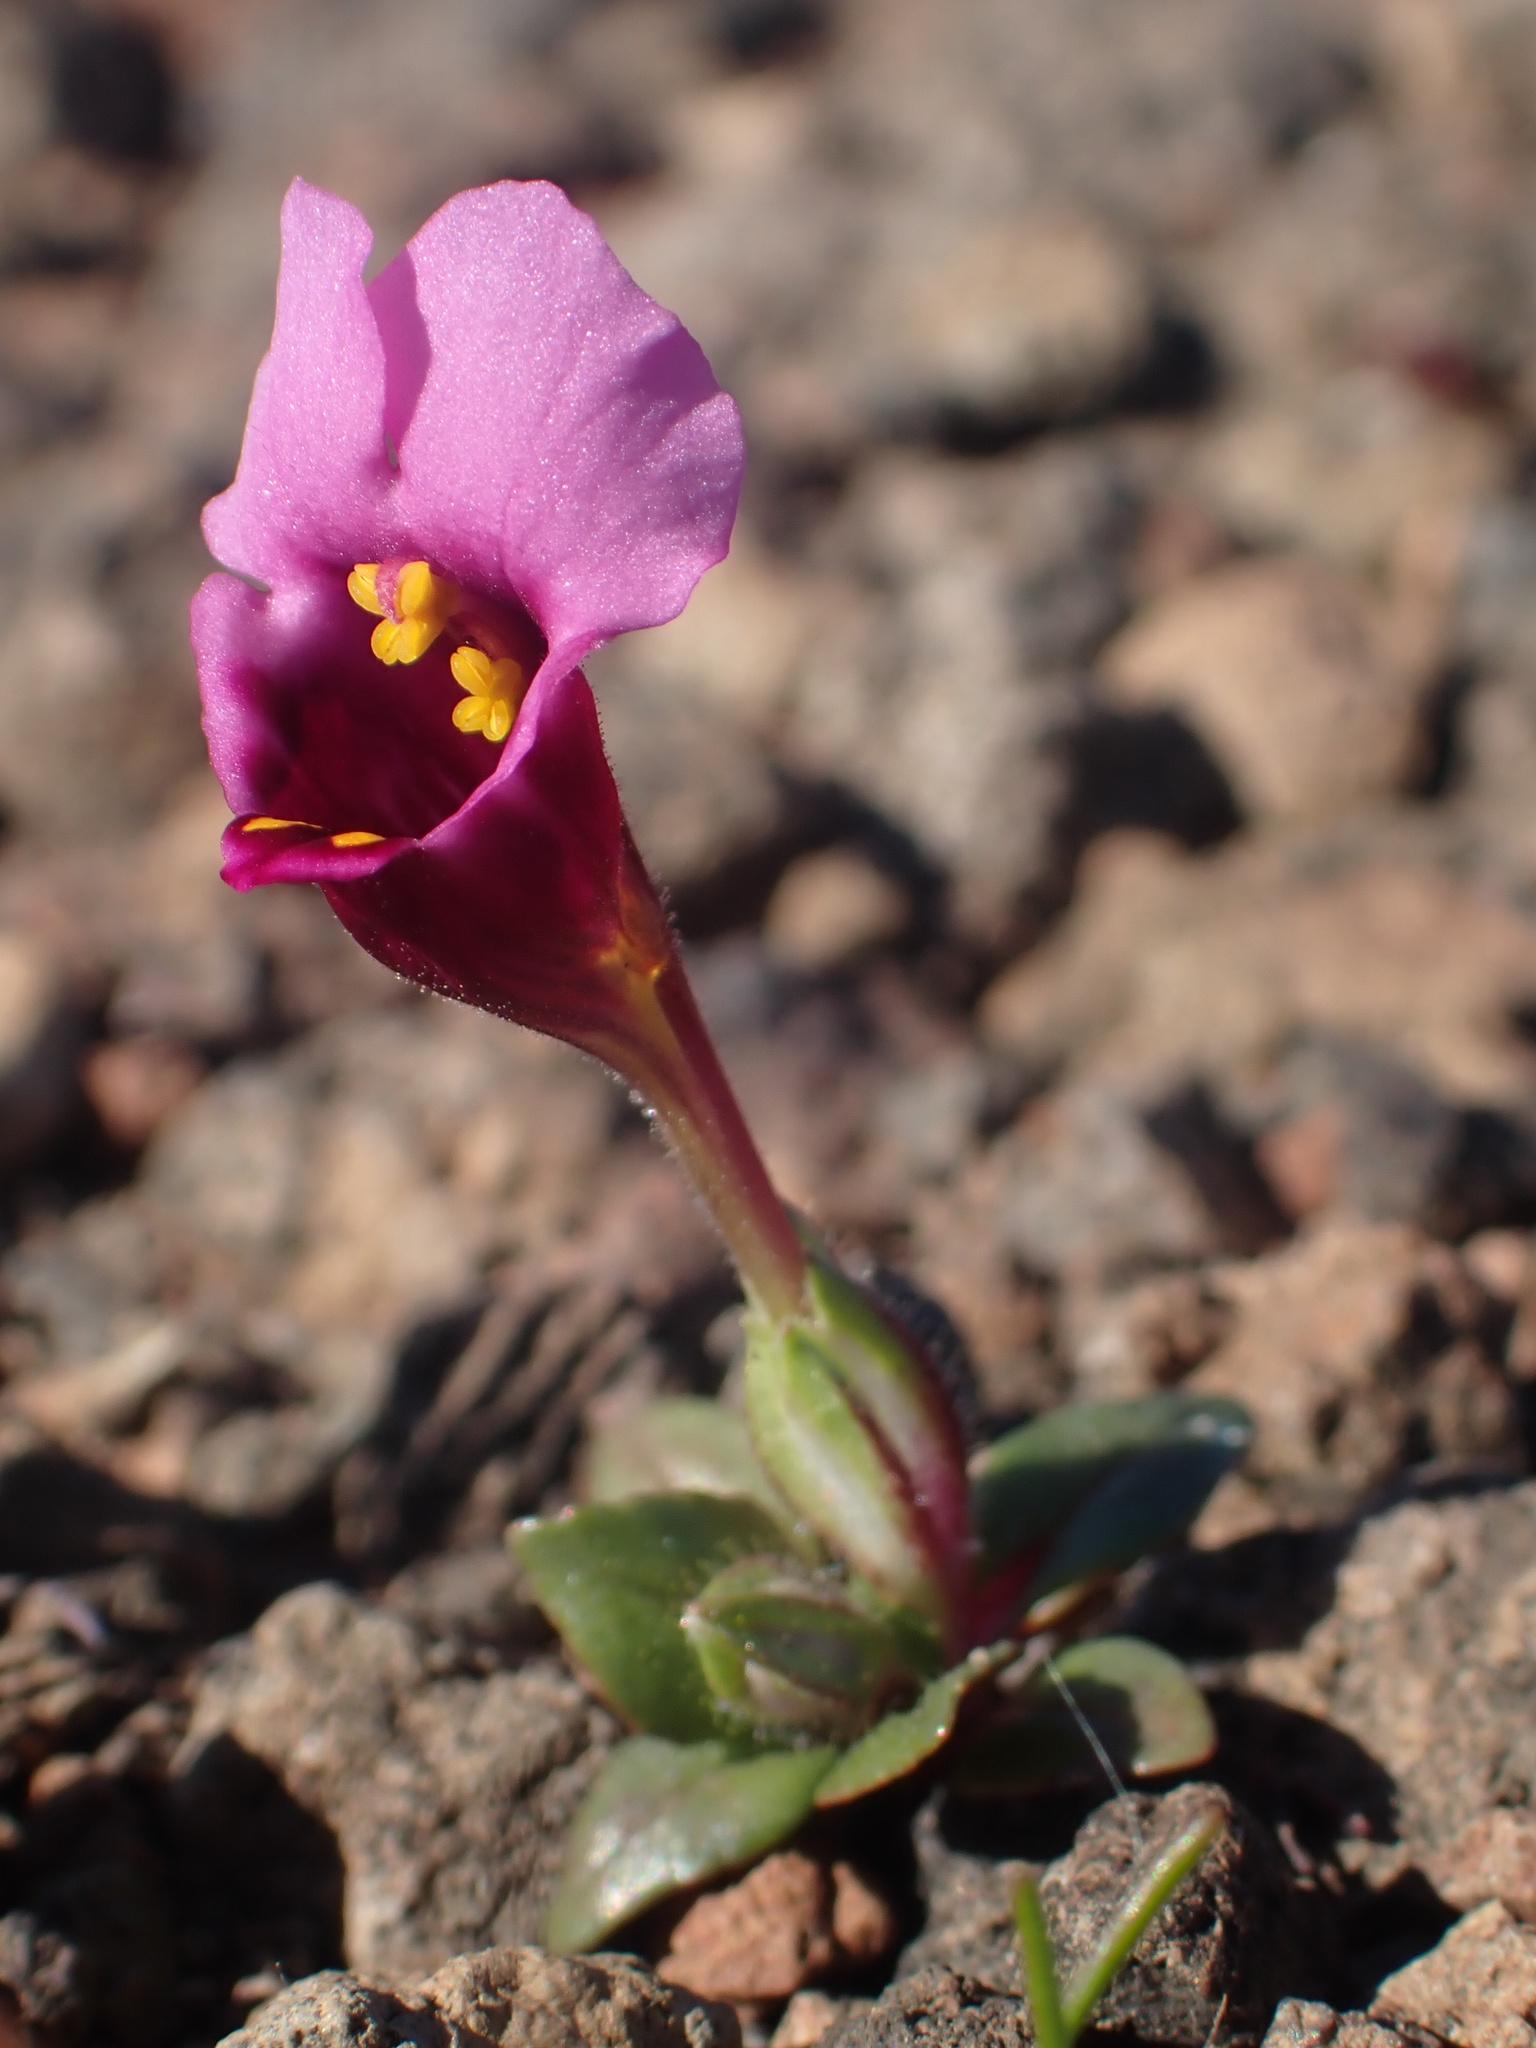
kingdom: Plantae
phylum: Tracheophyta
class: Magnoliopsida
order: Lamiales
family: Phrymaceae
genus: Diplacus
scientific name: Diplacus douglasii
